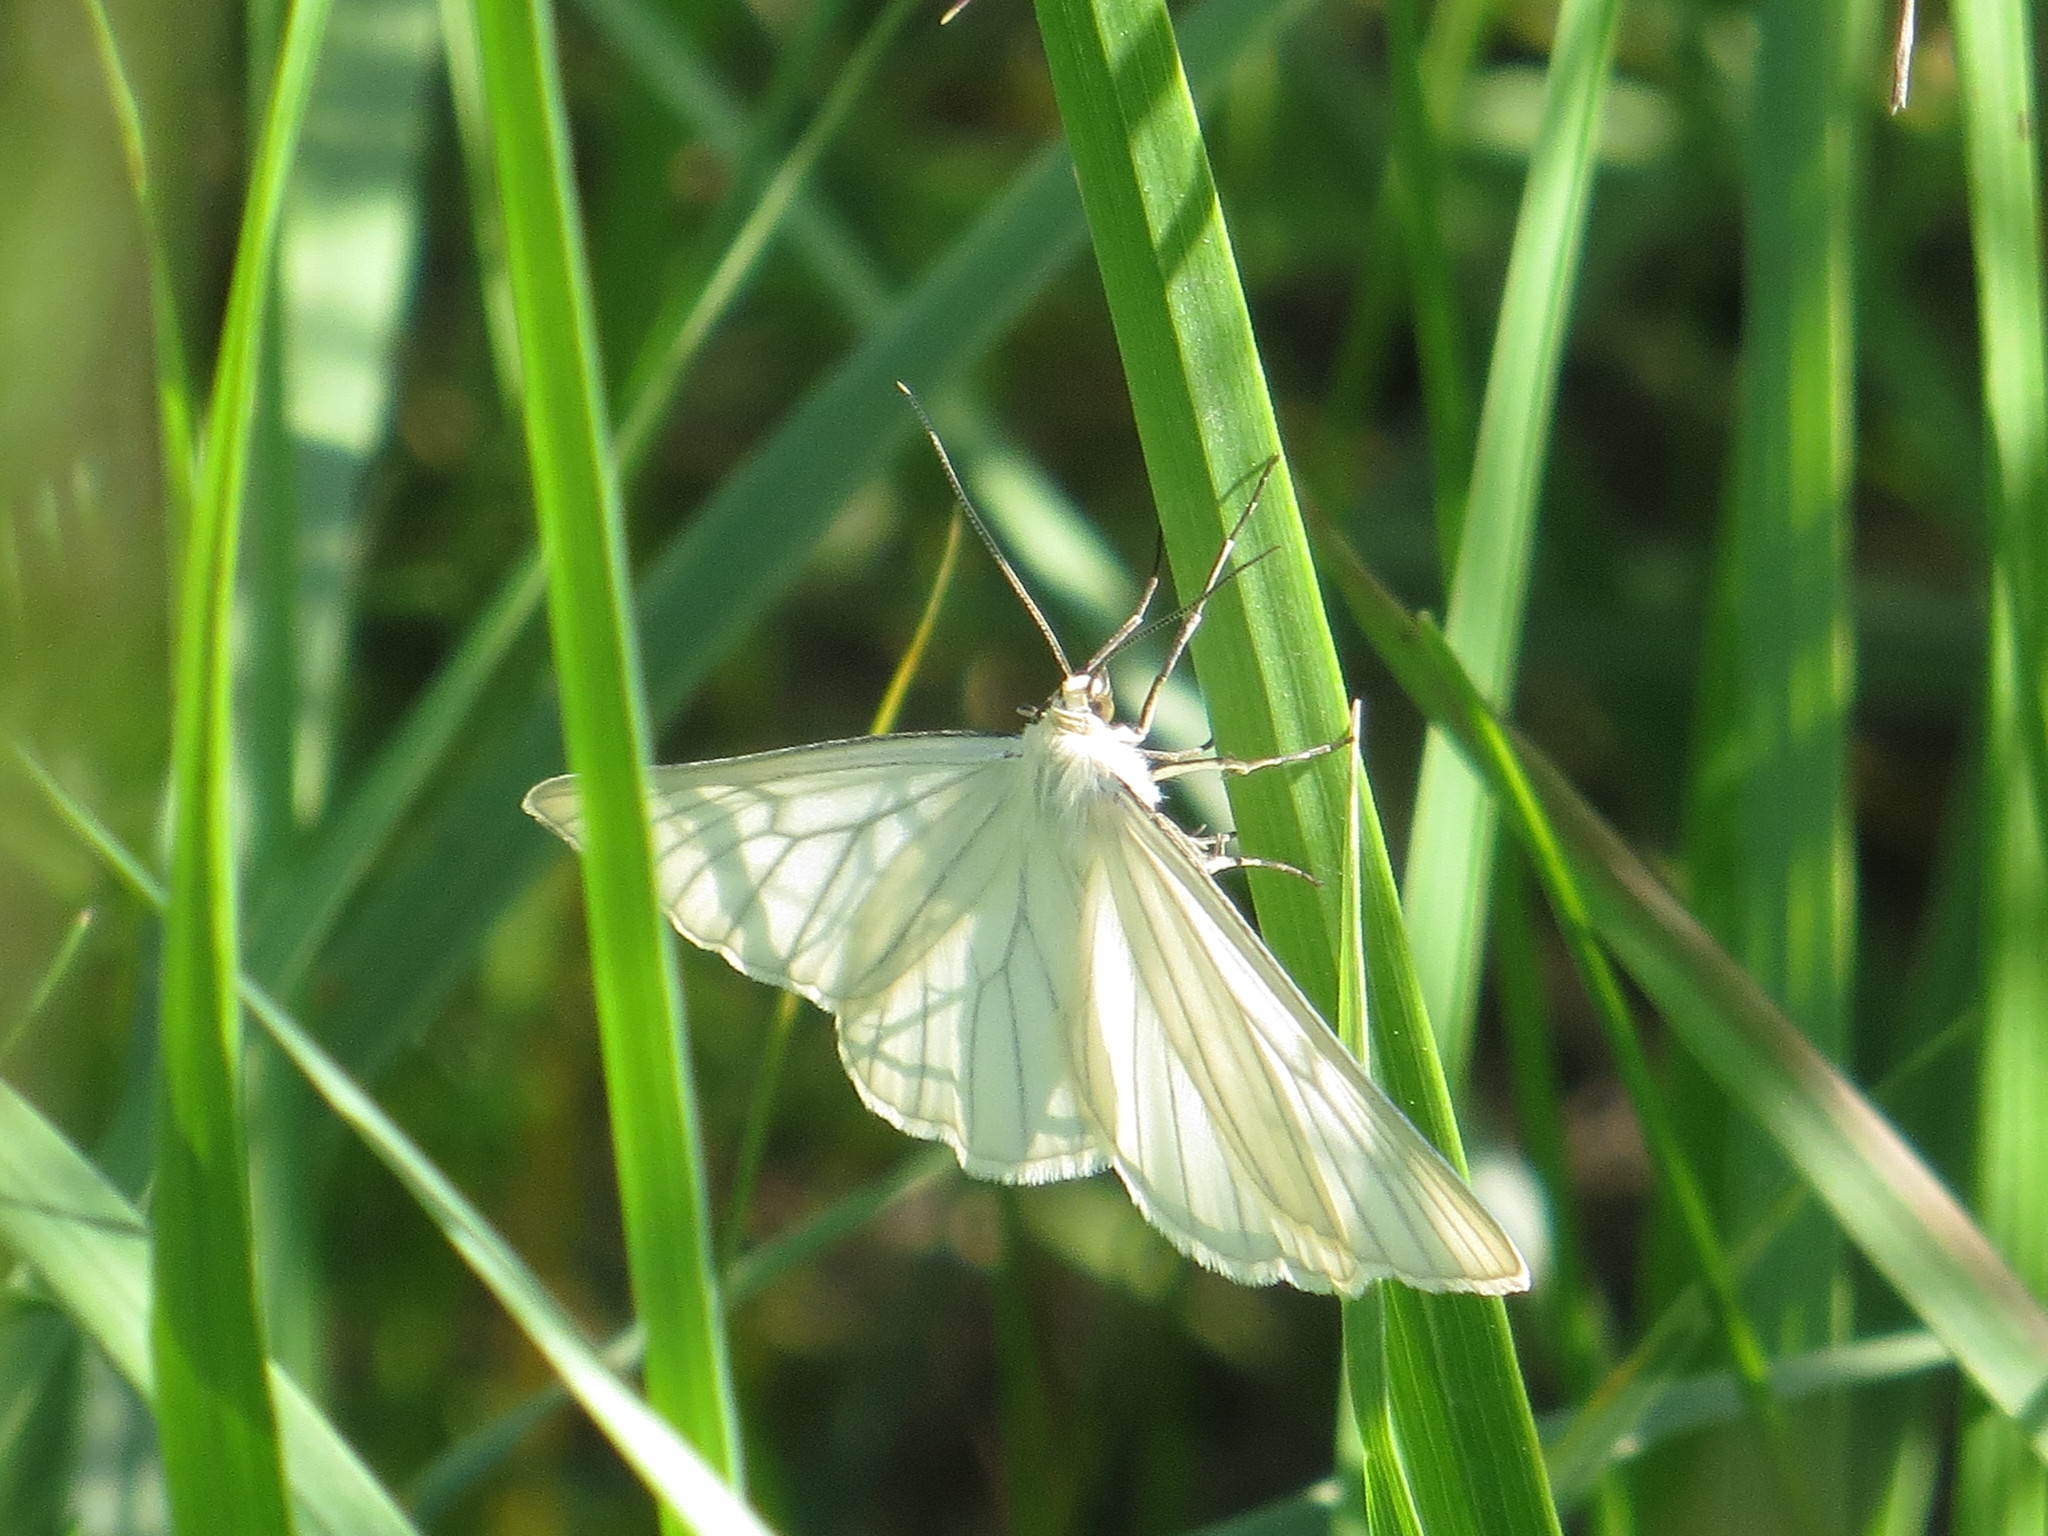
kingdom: Animalia
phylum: Arthropoda
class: Insecta
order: Lepidoptera
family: Geometridae
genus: Siona
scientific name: Siona lineata
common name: Black-veined moth
